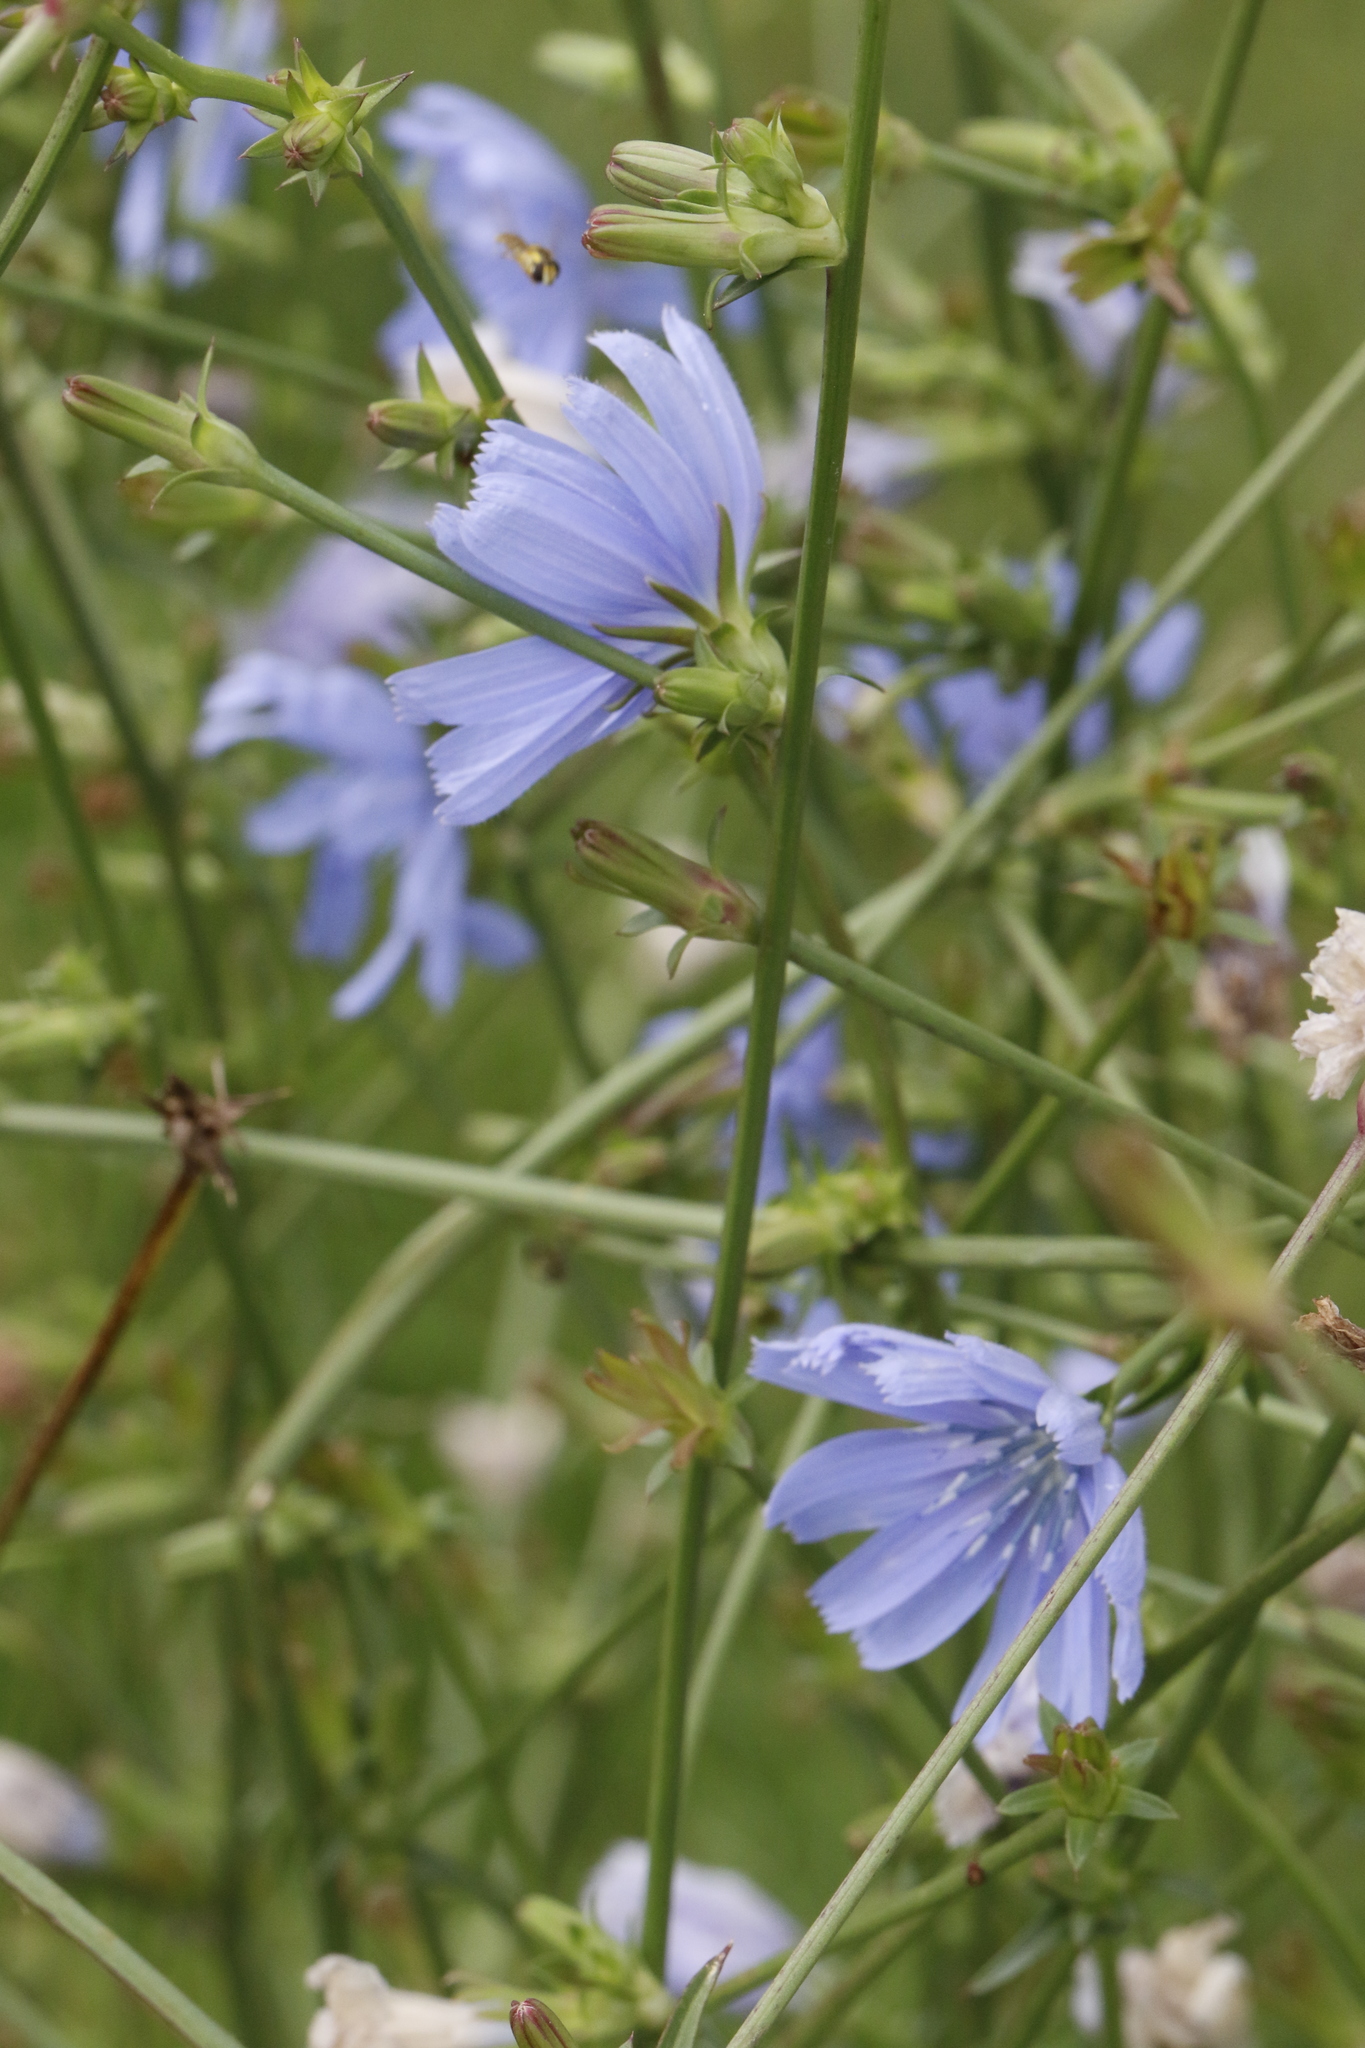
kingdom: Plantae
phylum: Tracheophyta
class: Magnoliopsida
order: Asterales
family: Asteraceae
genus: Cichorium
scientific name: Cichorium intybus
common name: Chicory
